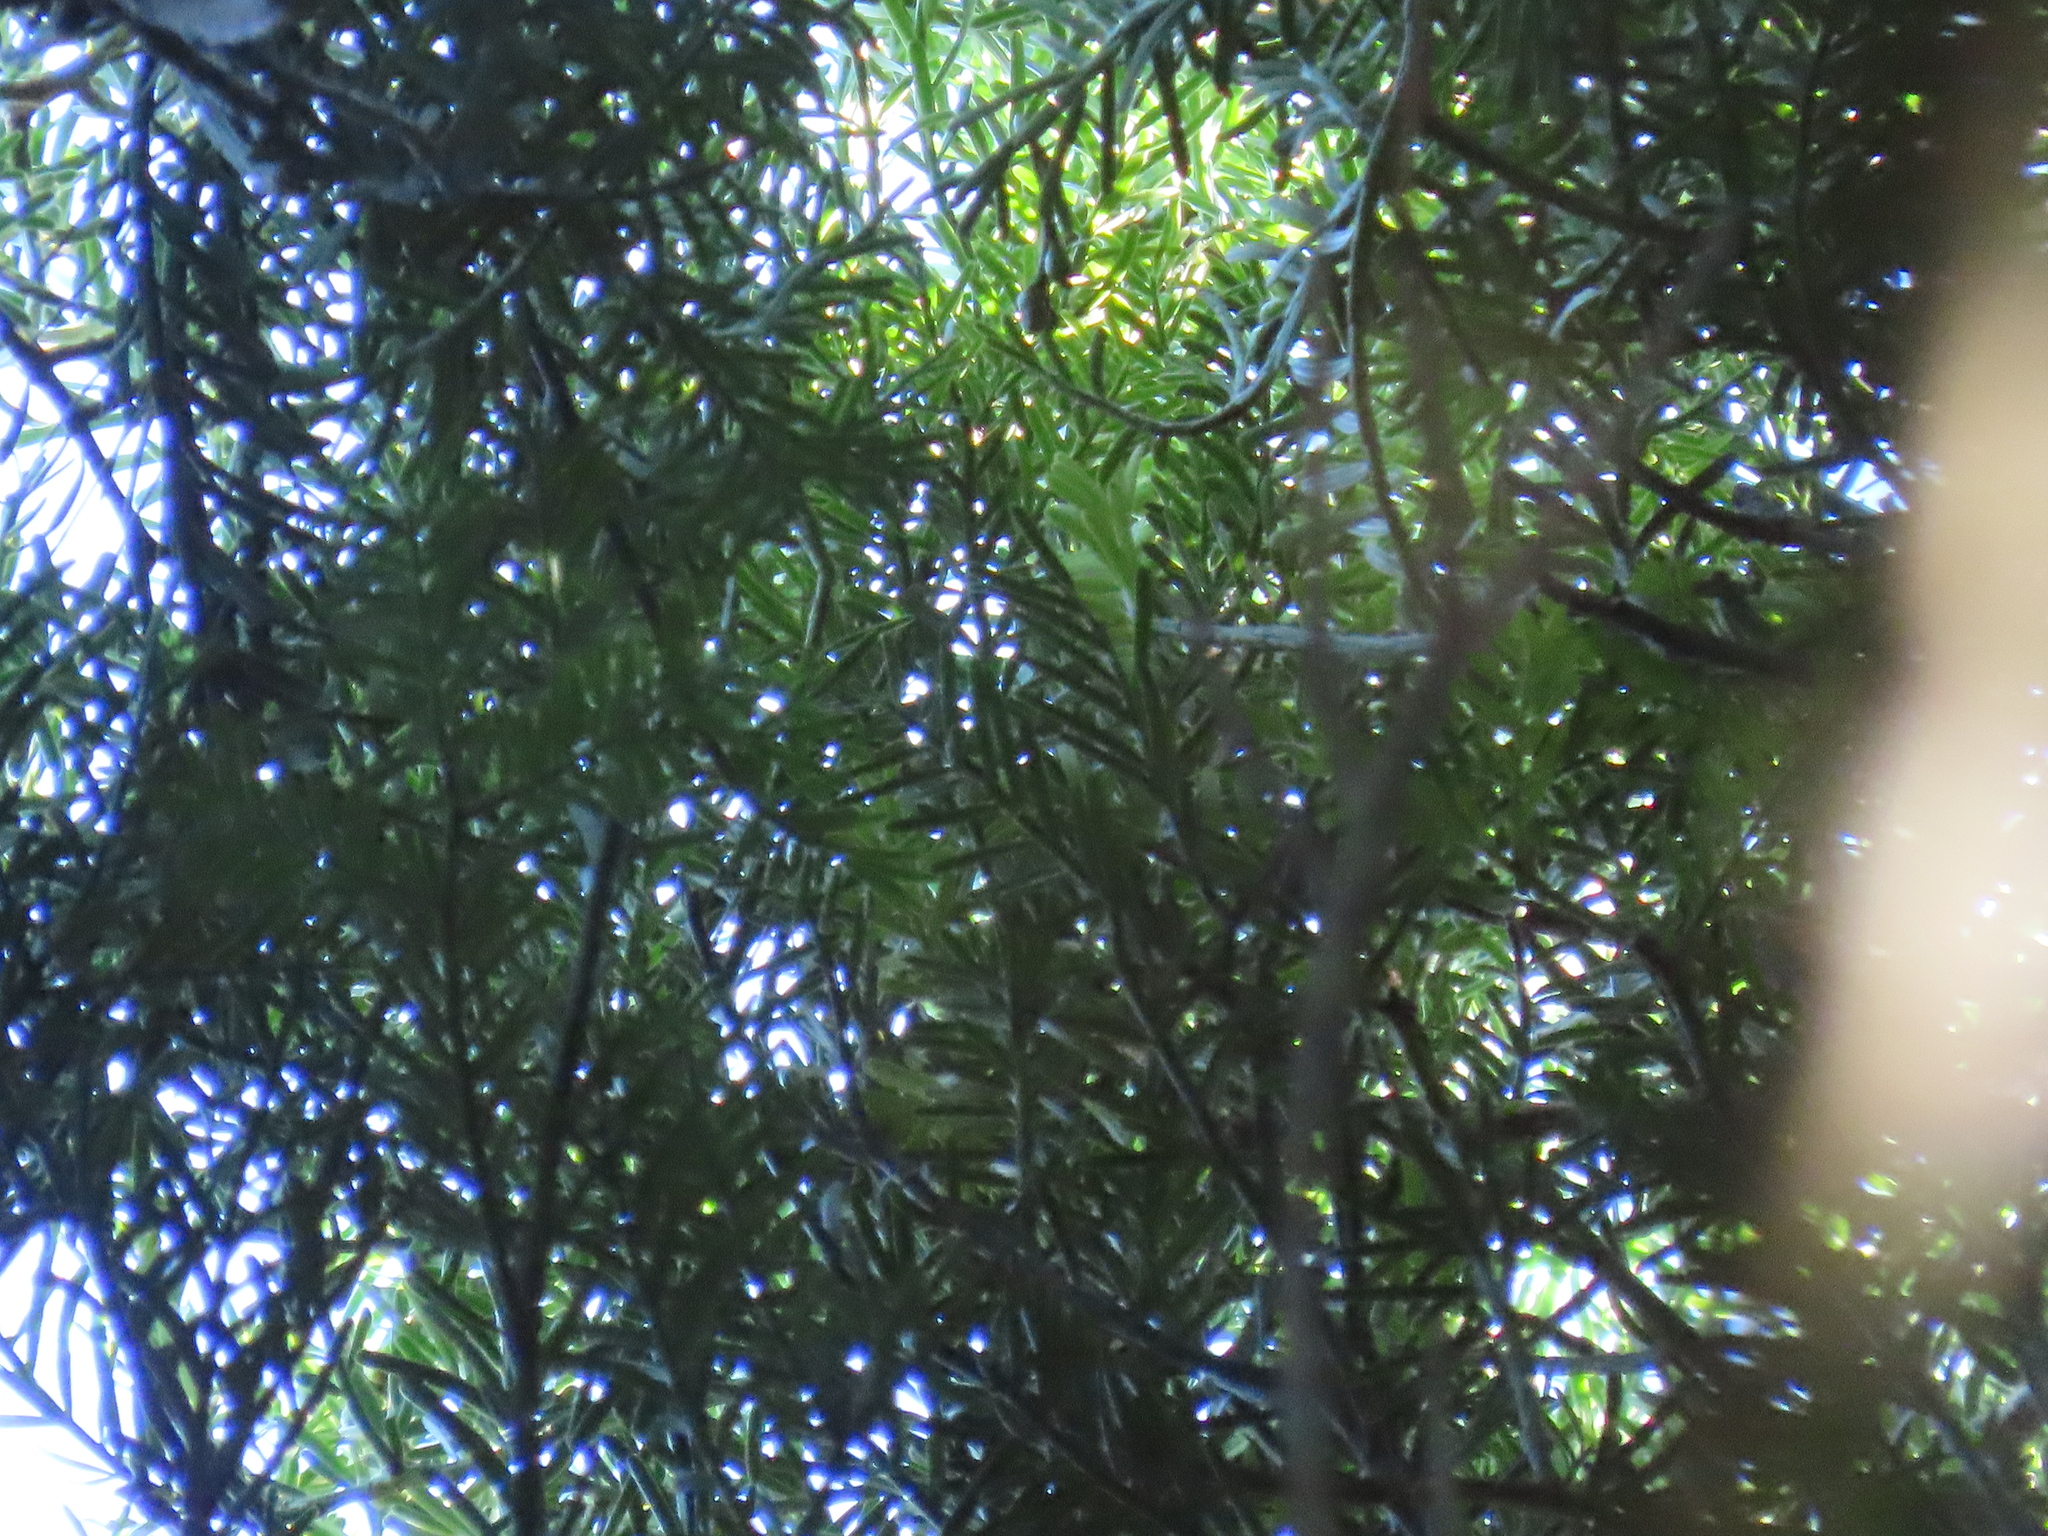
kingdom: Plantae
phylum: Tracheophyta
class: Pinopsida
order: Pinales
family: Podocarpaceae
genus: Prumnopitys
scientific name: Prumnopitys taxifolia
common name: Matai
